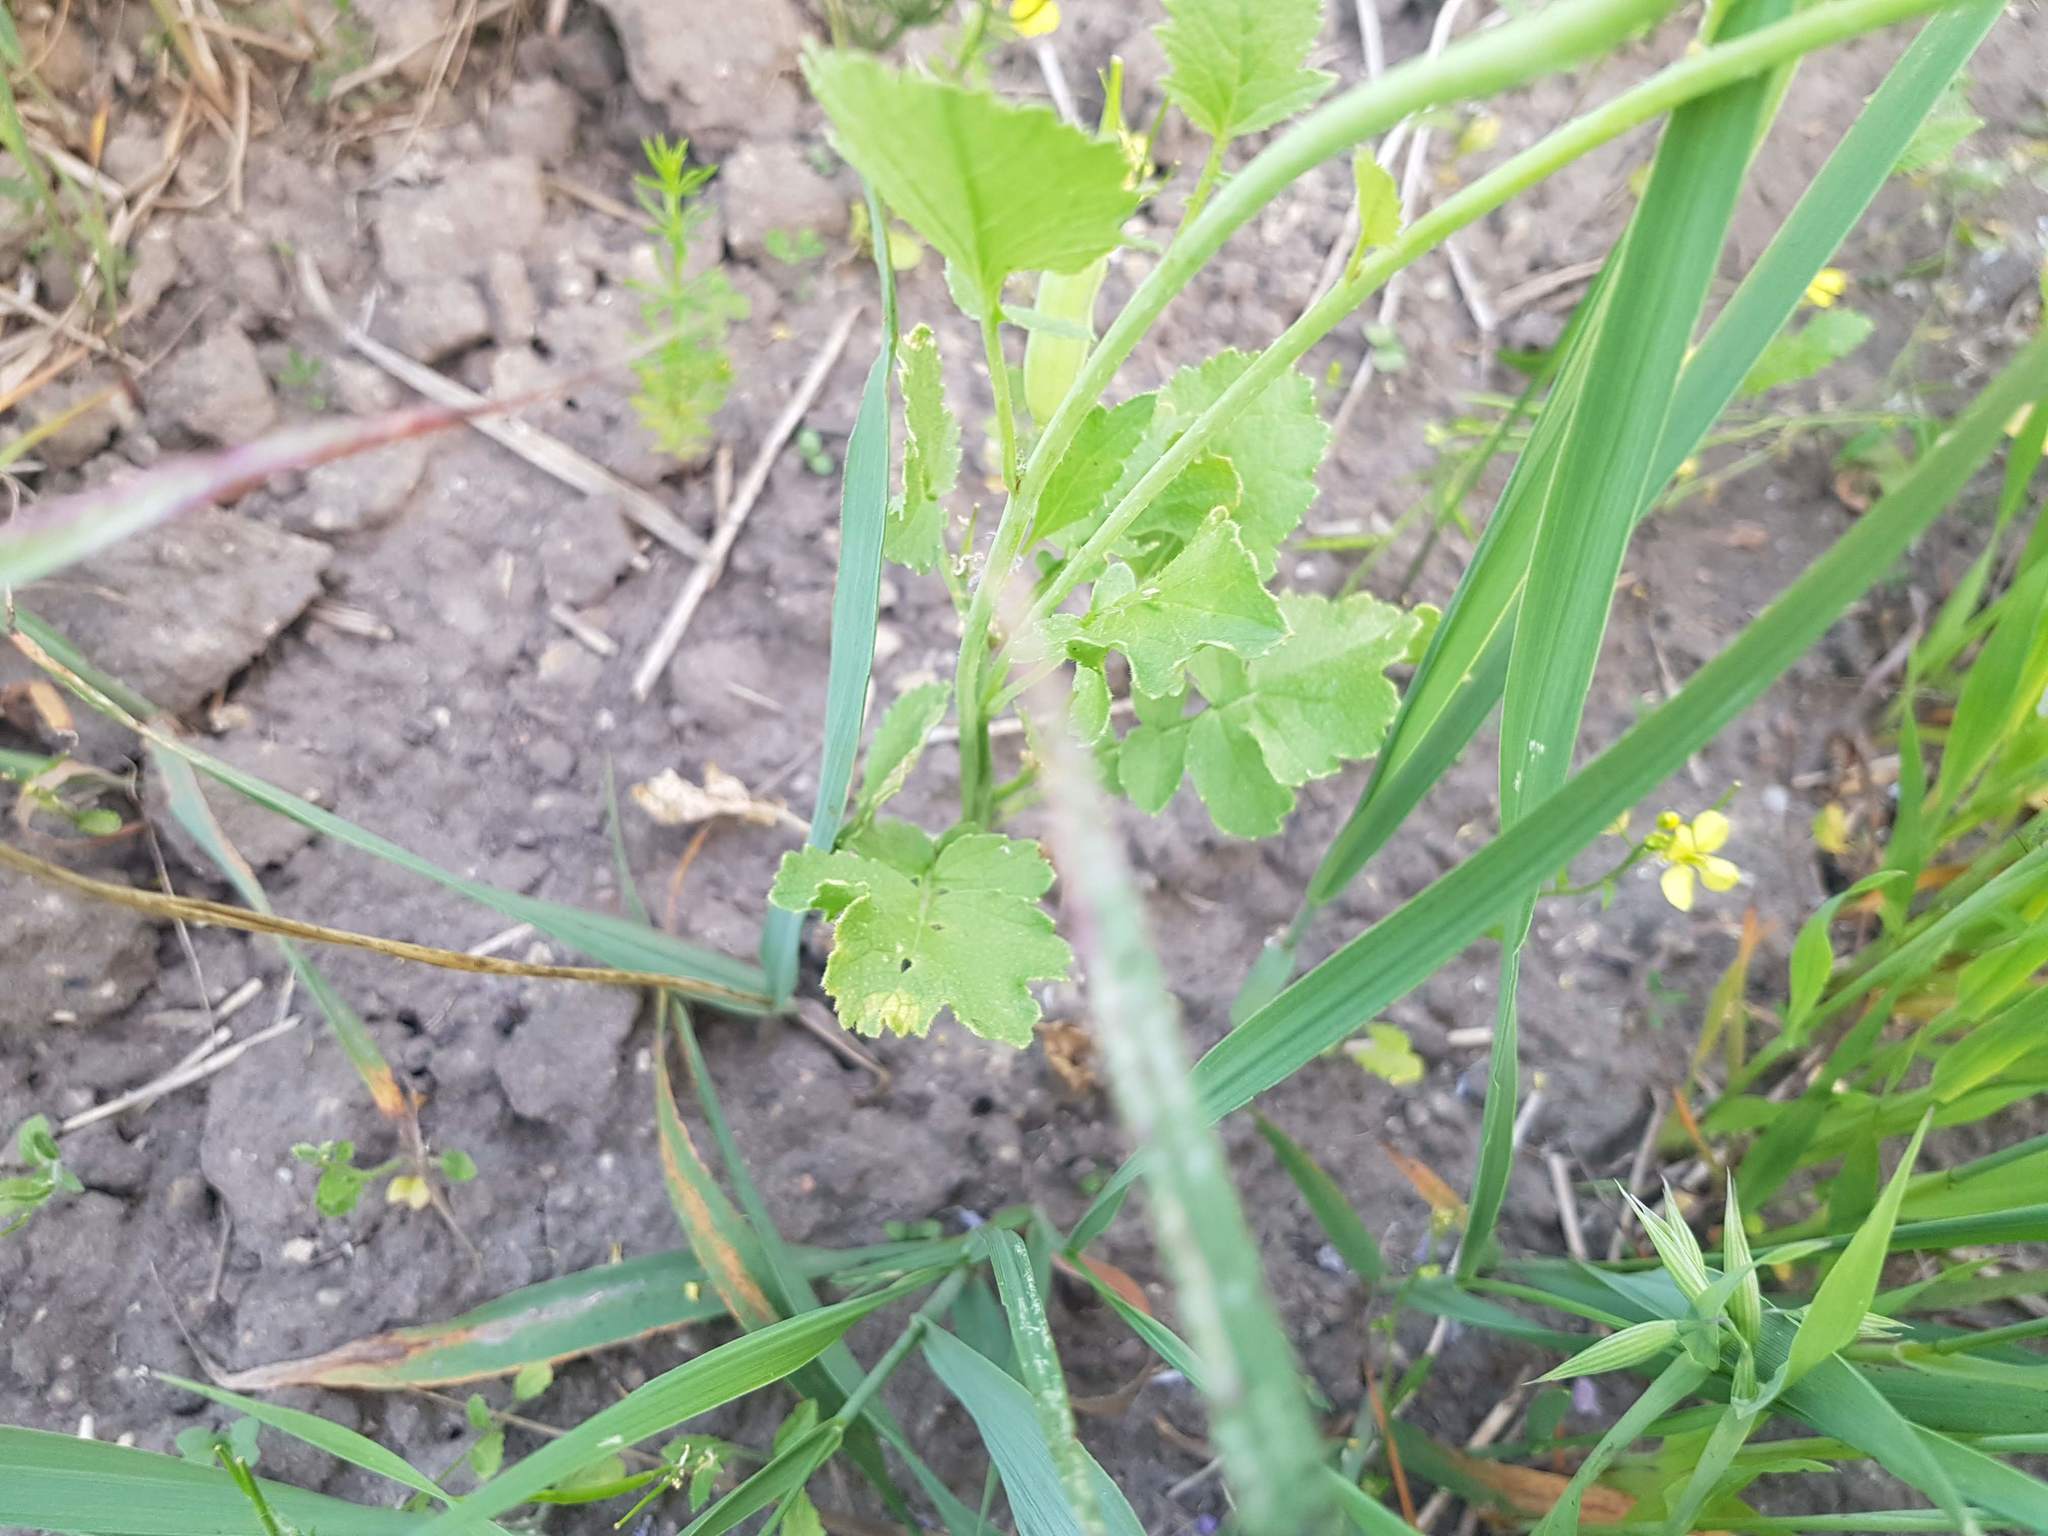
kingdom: Plantae
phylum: Tracheophyta
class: Magnoliopsida
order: Brassicales
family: Brassicaceae
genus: Raphanus
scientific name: Raphanus sativus
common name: Cultivated radish
